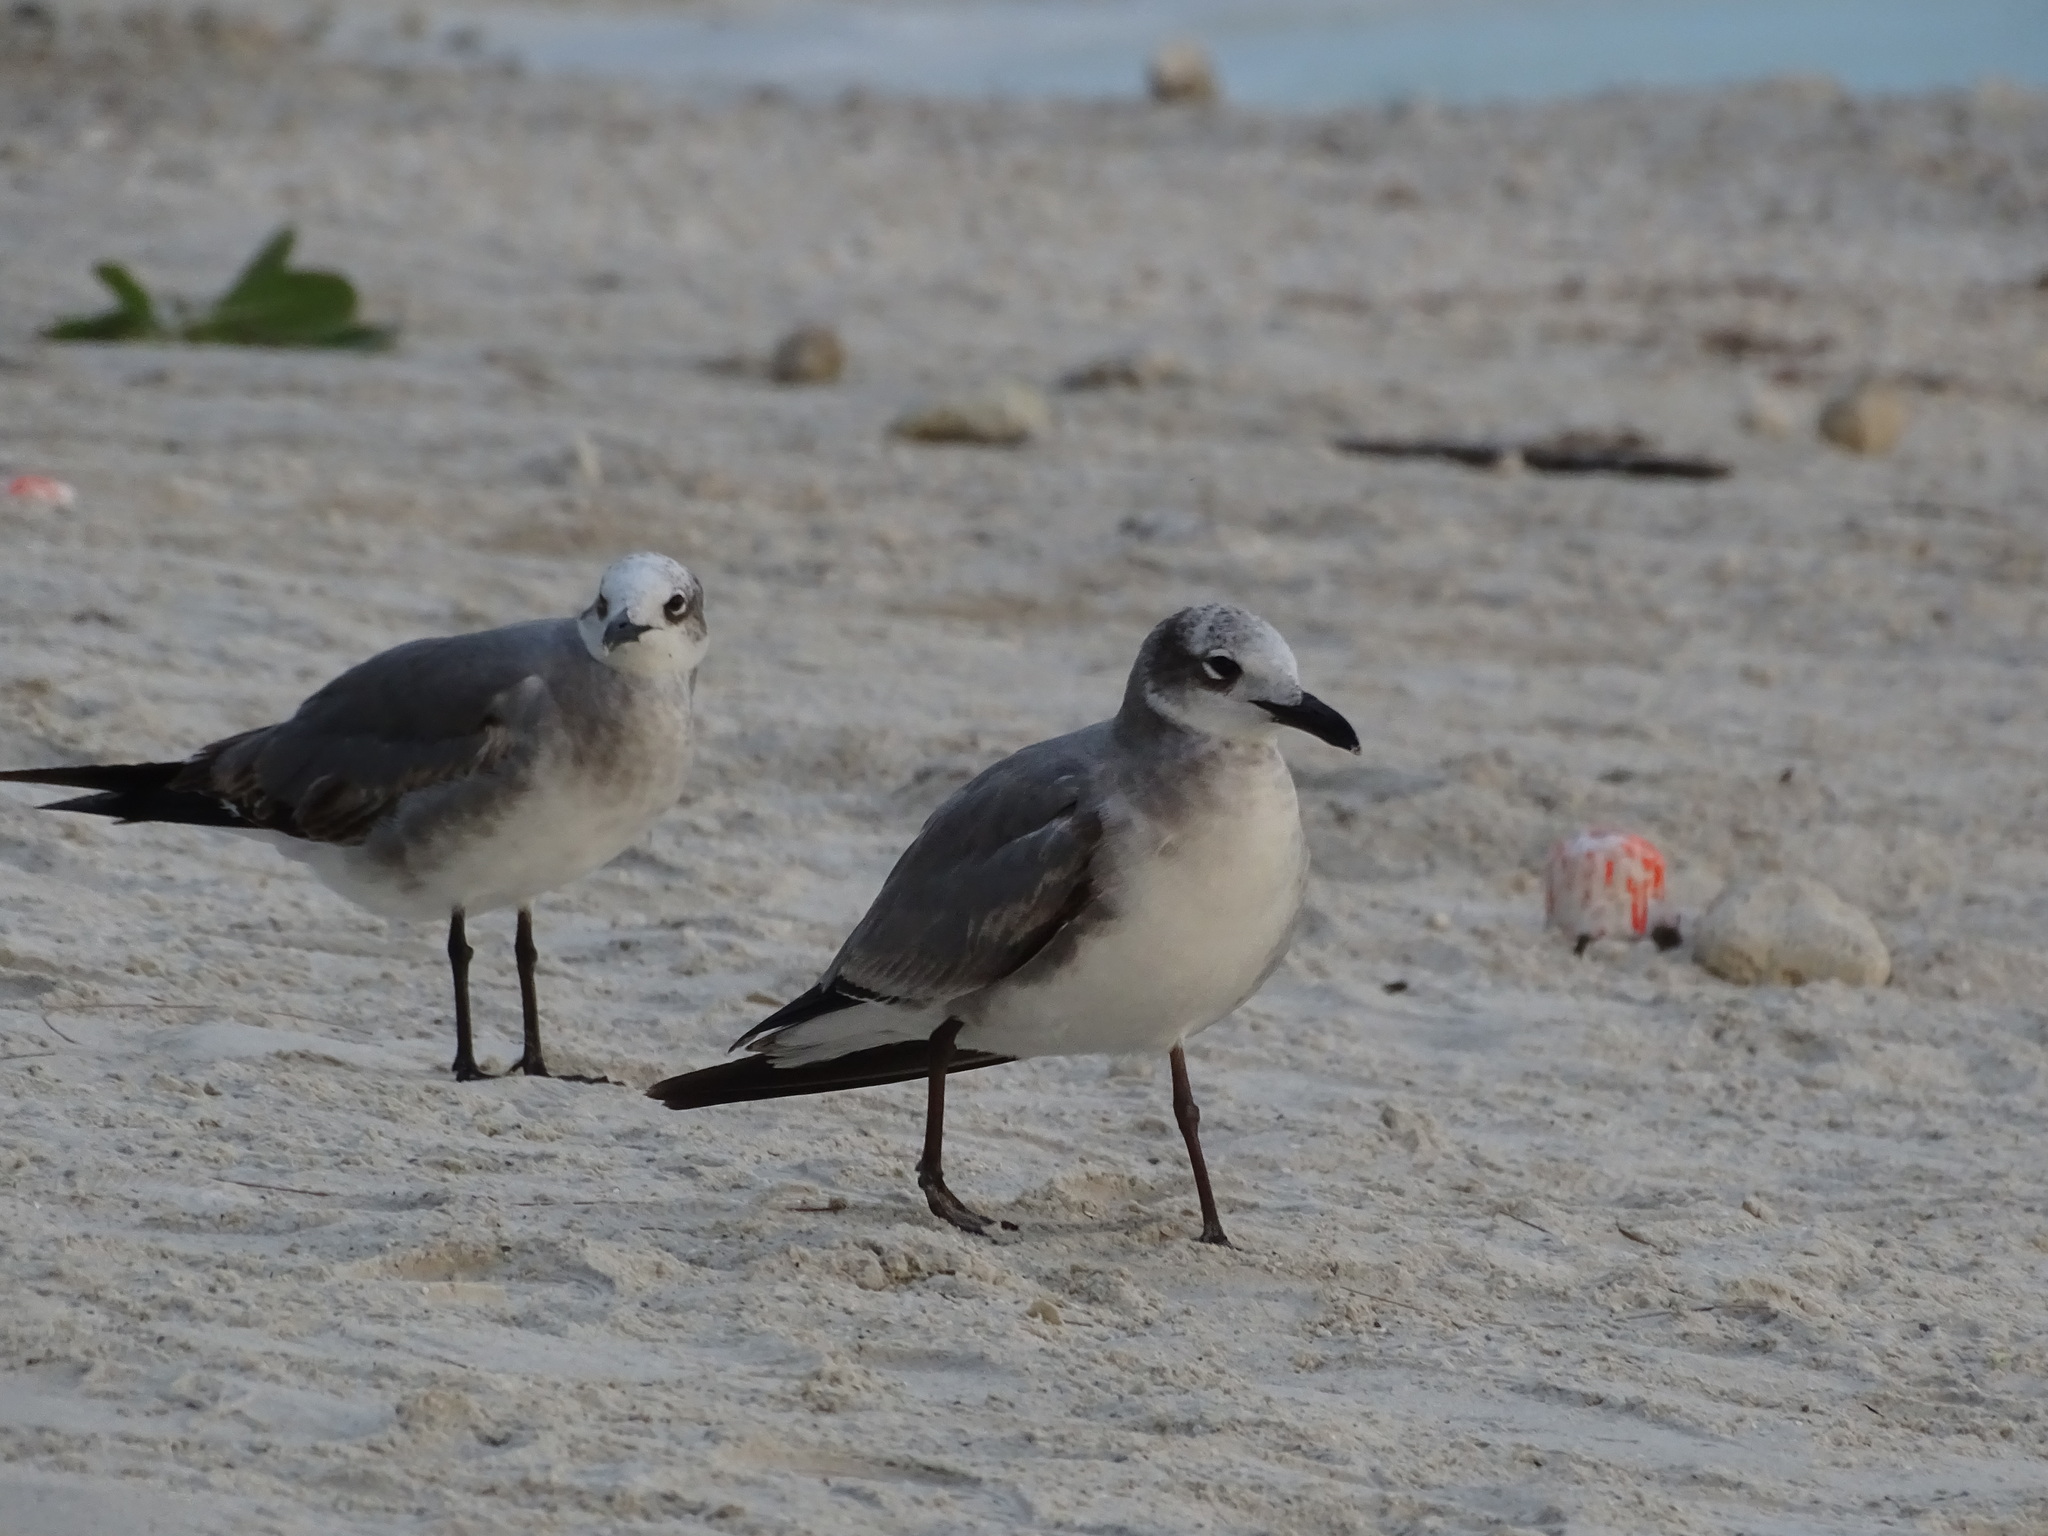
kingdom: Animalia
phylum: Chordata
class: Aves
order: Charadriiformes
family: Laridae
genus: Leucophaeus
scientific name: Leucophaeus atricilla
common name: Laughing gull
